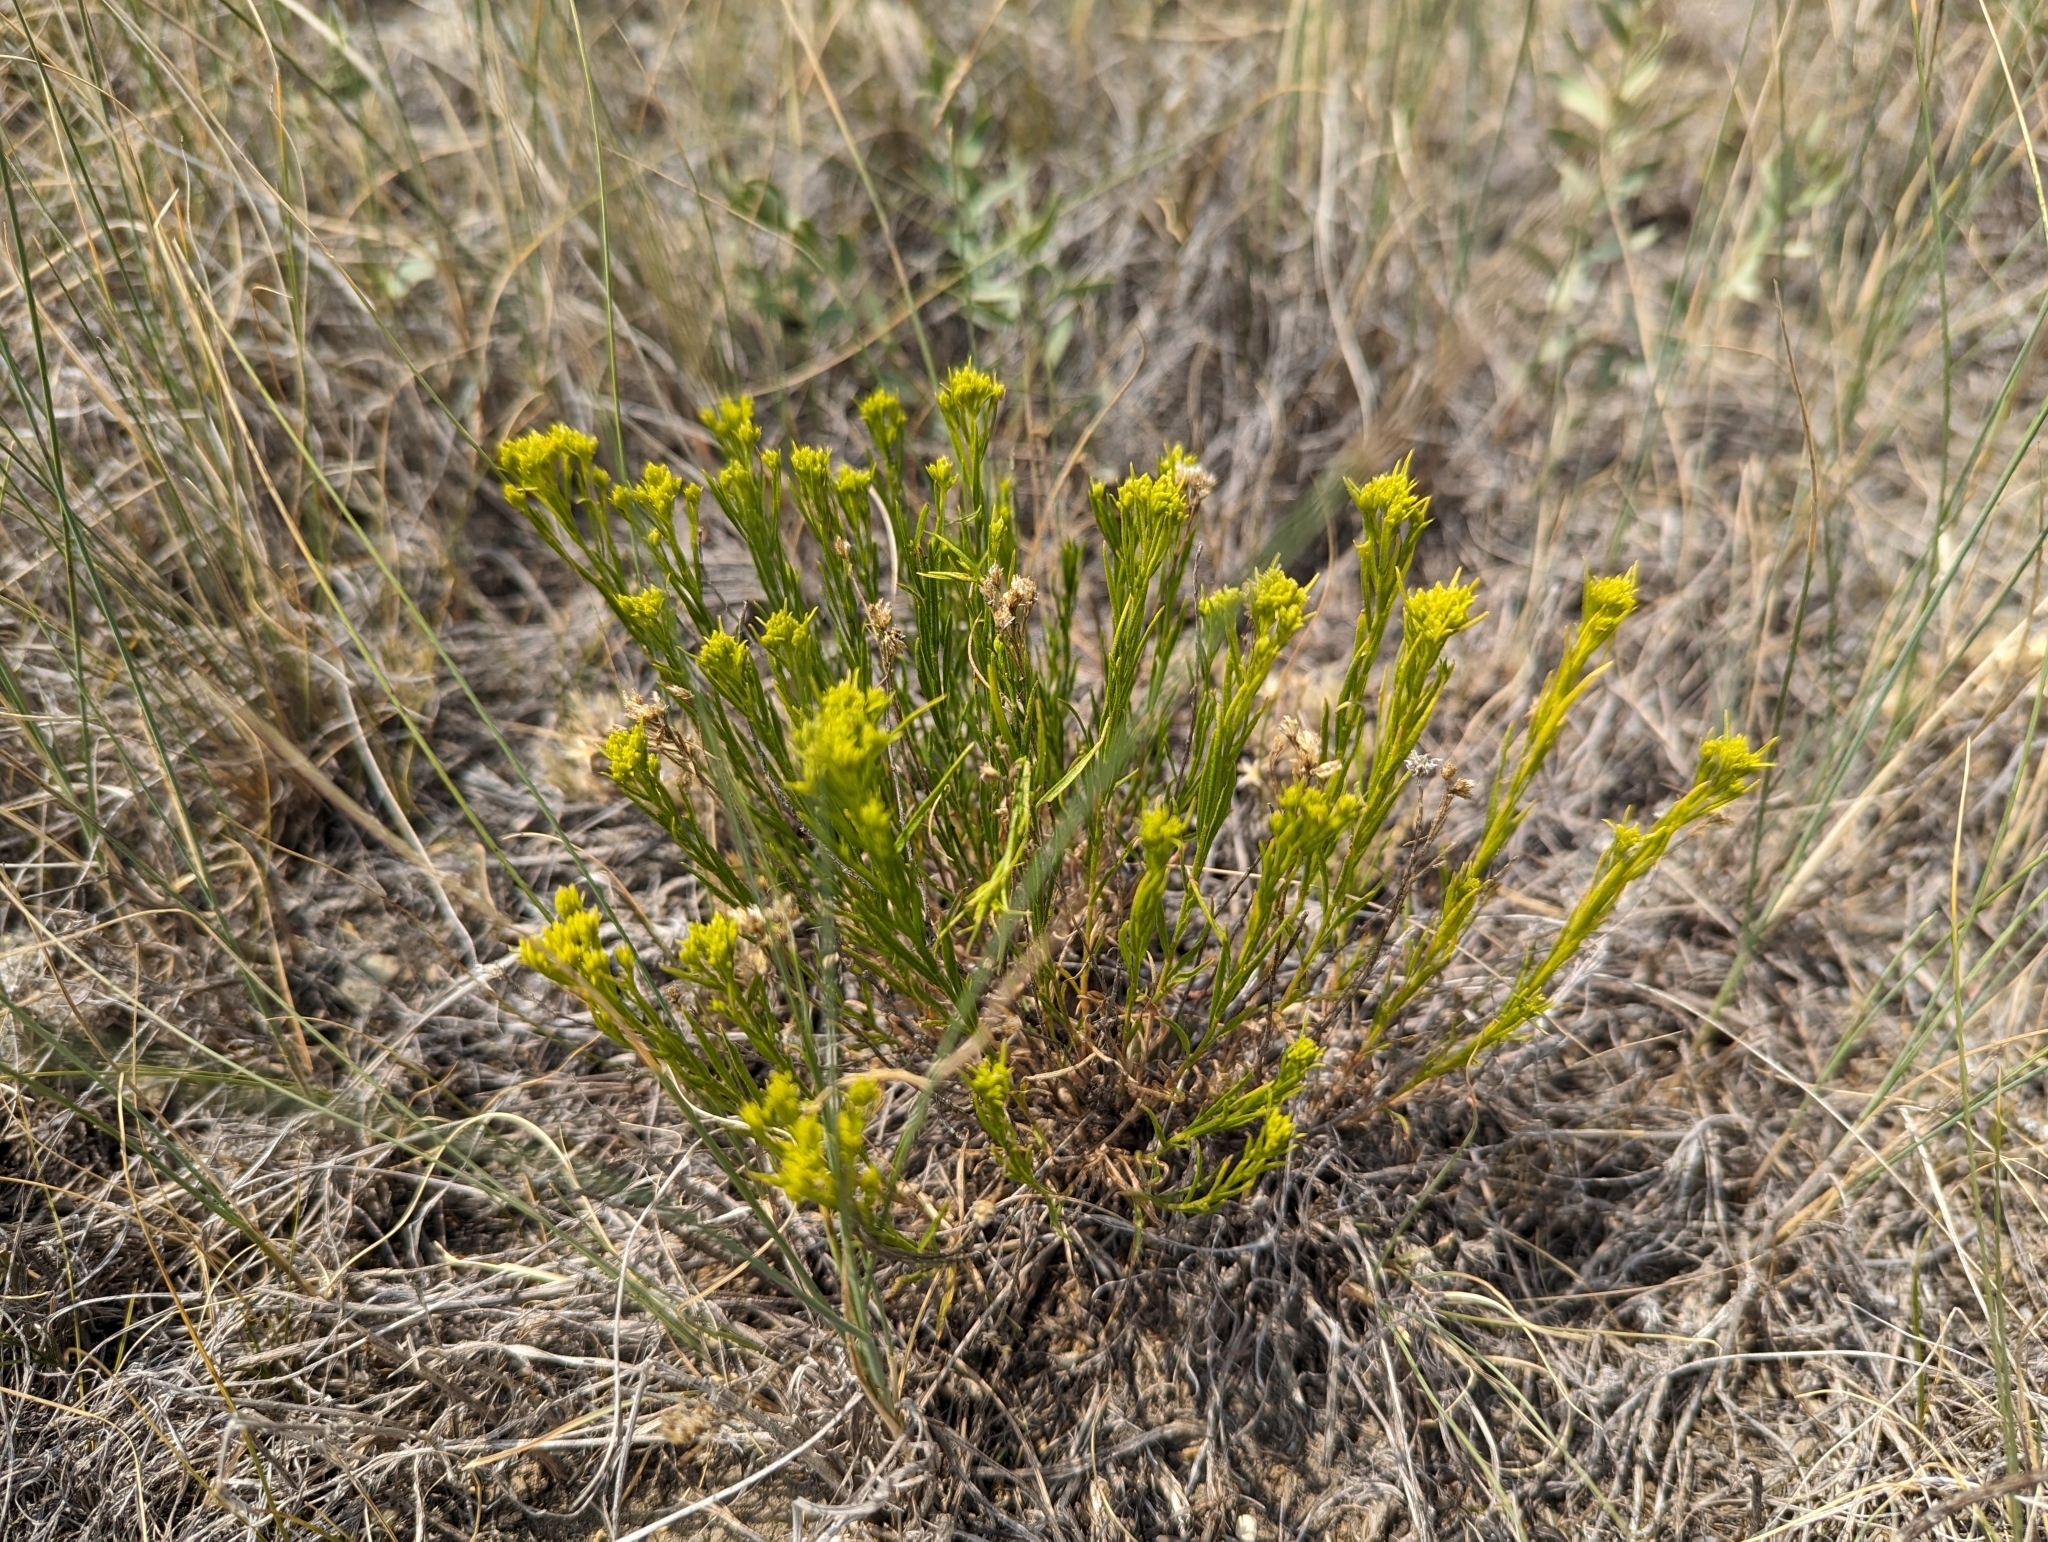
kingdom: Plantae
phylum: Tracheophyta
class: Magnoliopsida
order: Asterales
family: Asteraceae
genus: Gutierrezia
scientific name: Gutierrezia sarothrae
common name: Broom snakeweed
